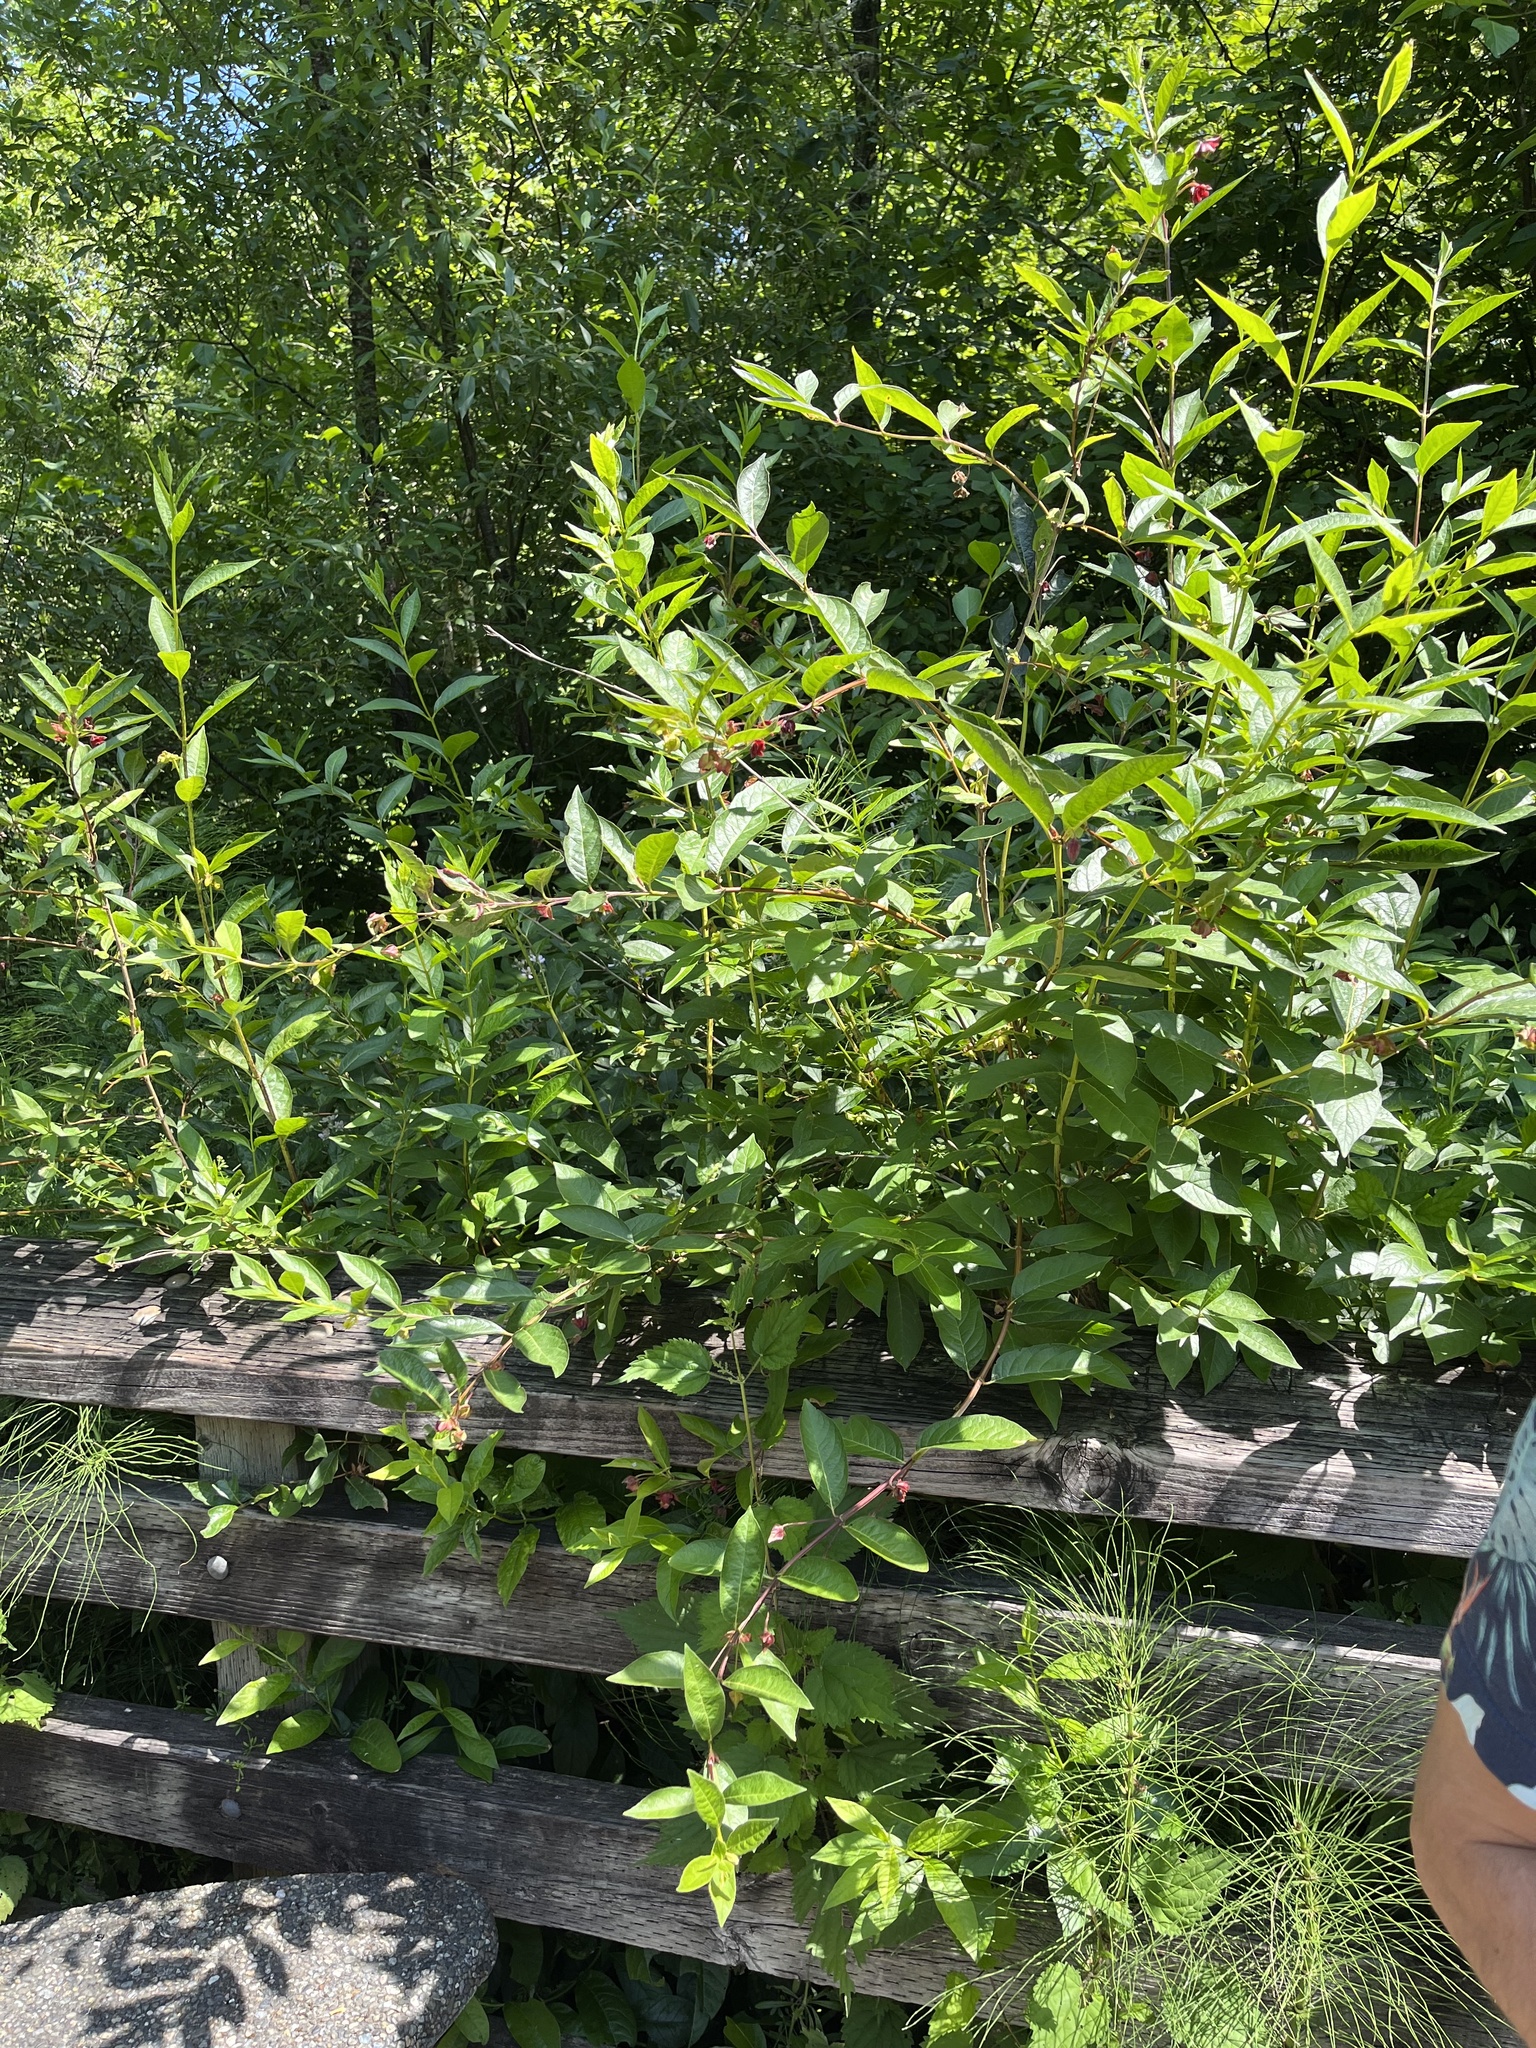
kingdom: Plantae
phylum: Tracheophyta
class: Magnoliopsida
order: Dipsacales
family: Caprifoliaceae
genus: Lonicera
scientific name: Lonicera involucrata
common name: Californian honeysuckle
